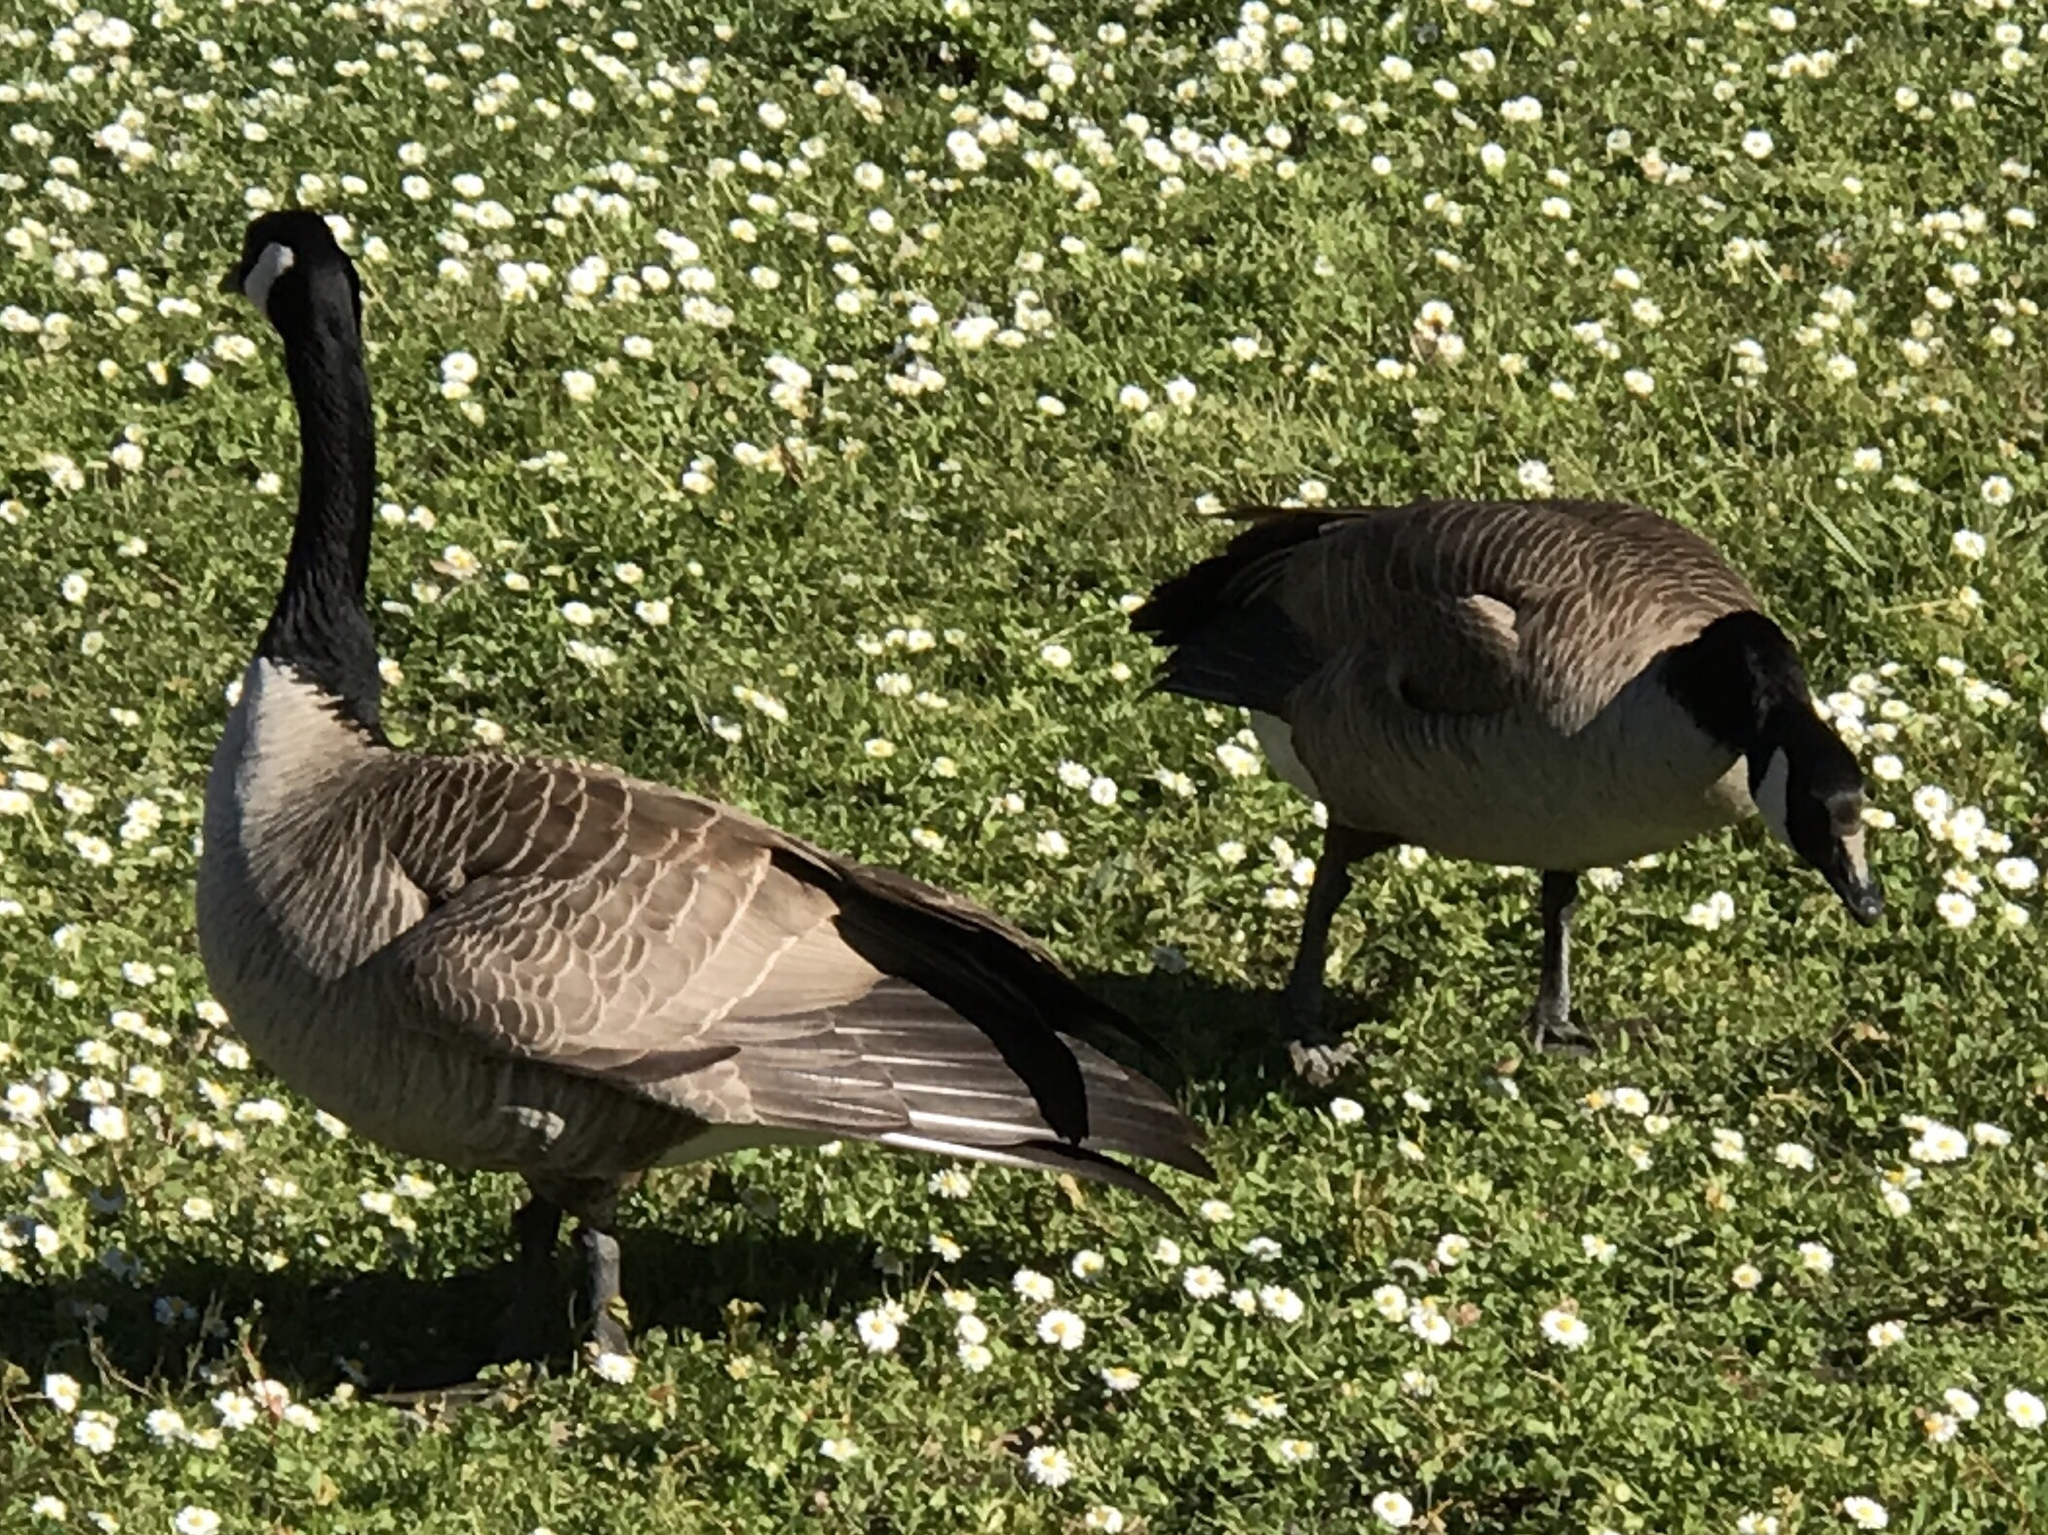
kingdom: Animalia
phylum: Chordata
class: Aves
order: Anseriformes
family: Anatidae
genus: Branta
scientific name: Branta canadensis
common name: Canada goose
